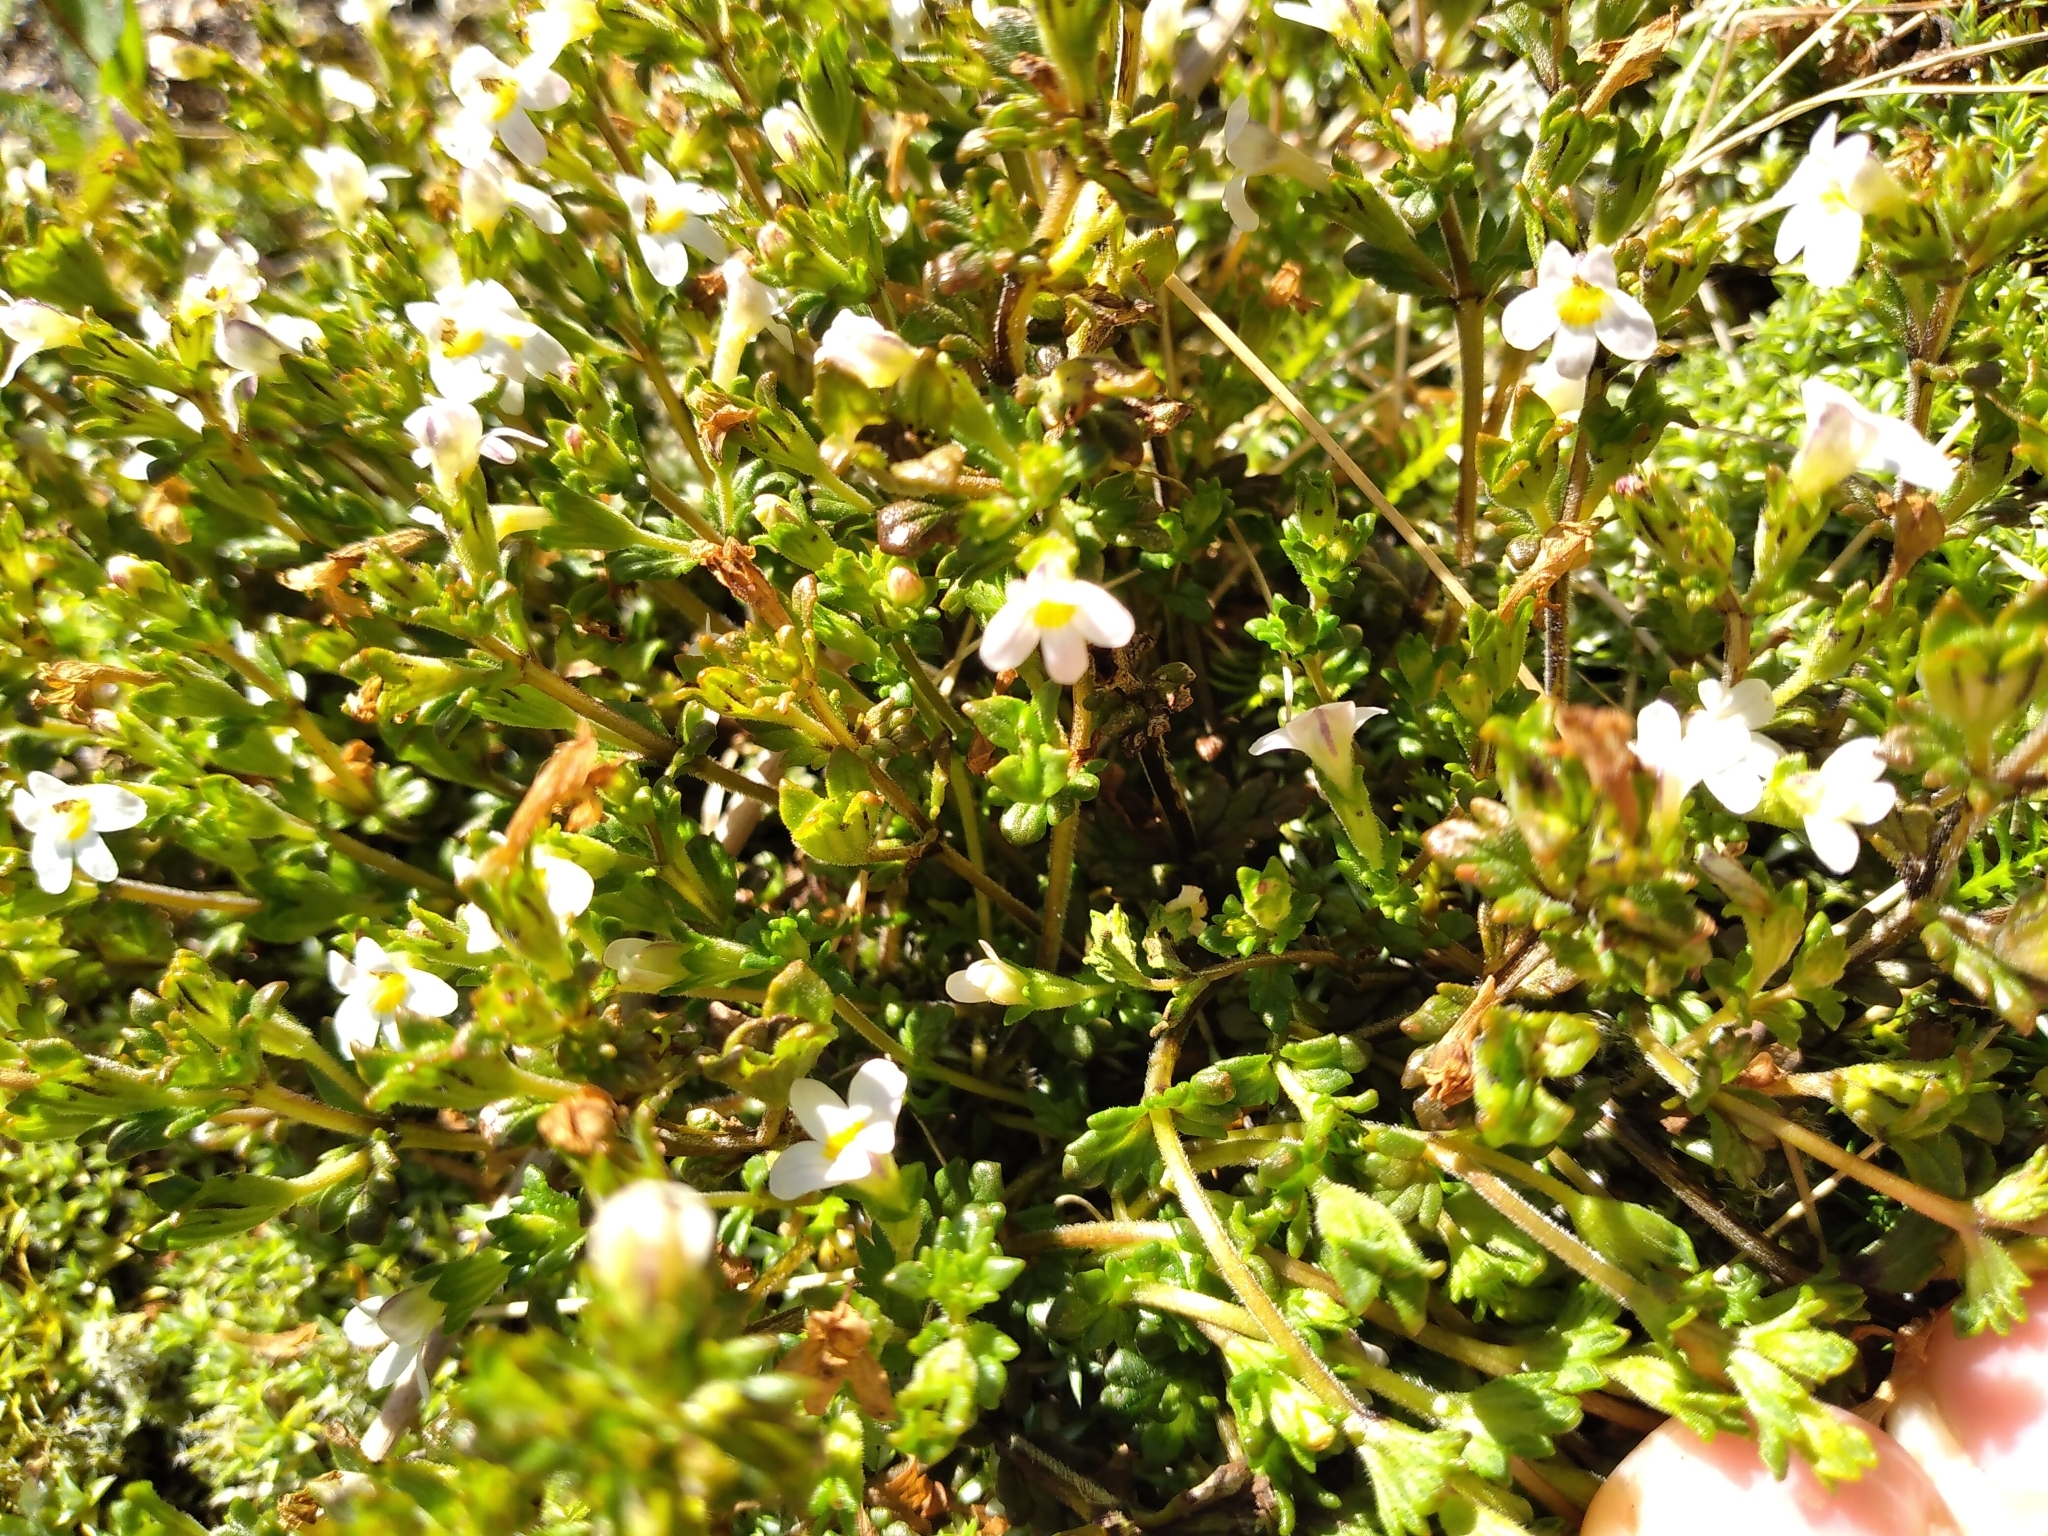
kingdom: Plantae
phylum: Tracheophyta
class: Magnoliopsida
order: Lamiales
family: Orobanchaceae
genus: Euphrasia
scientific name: Euphrasia australis
